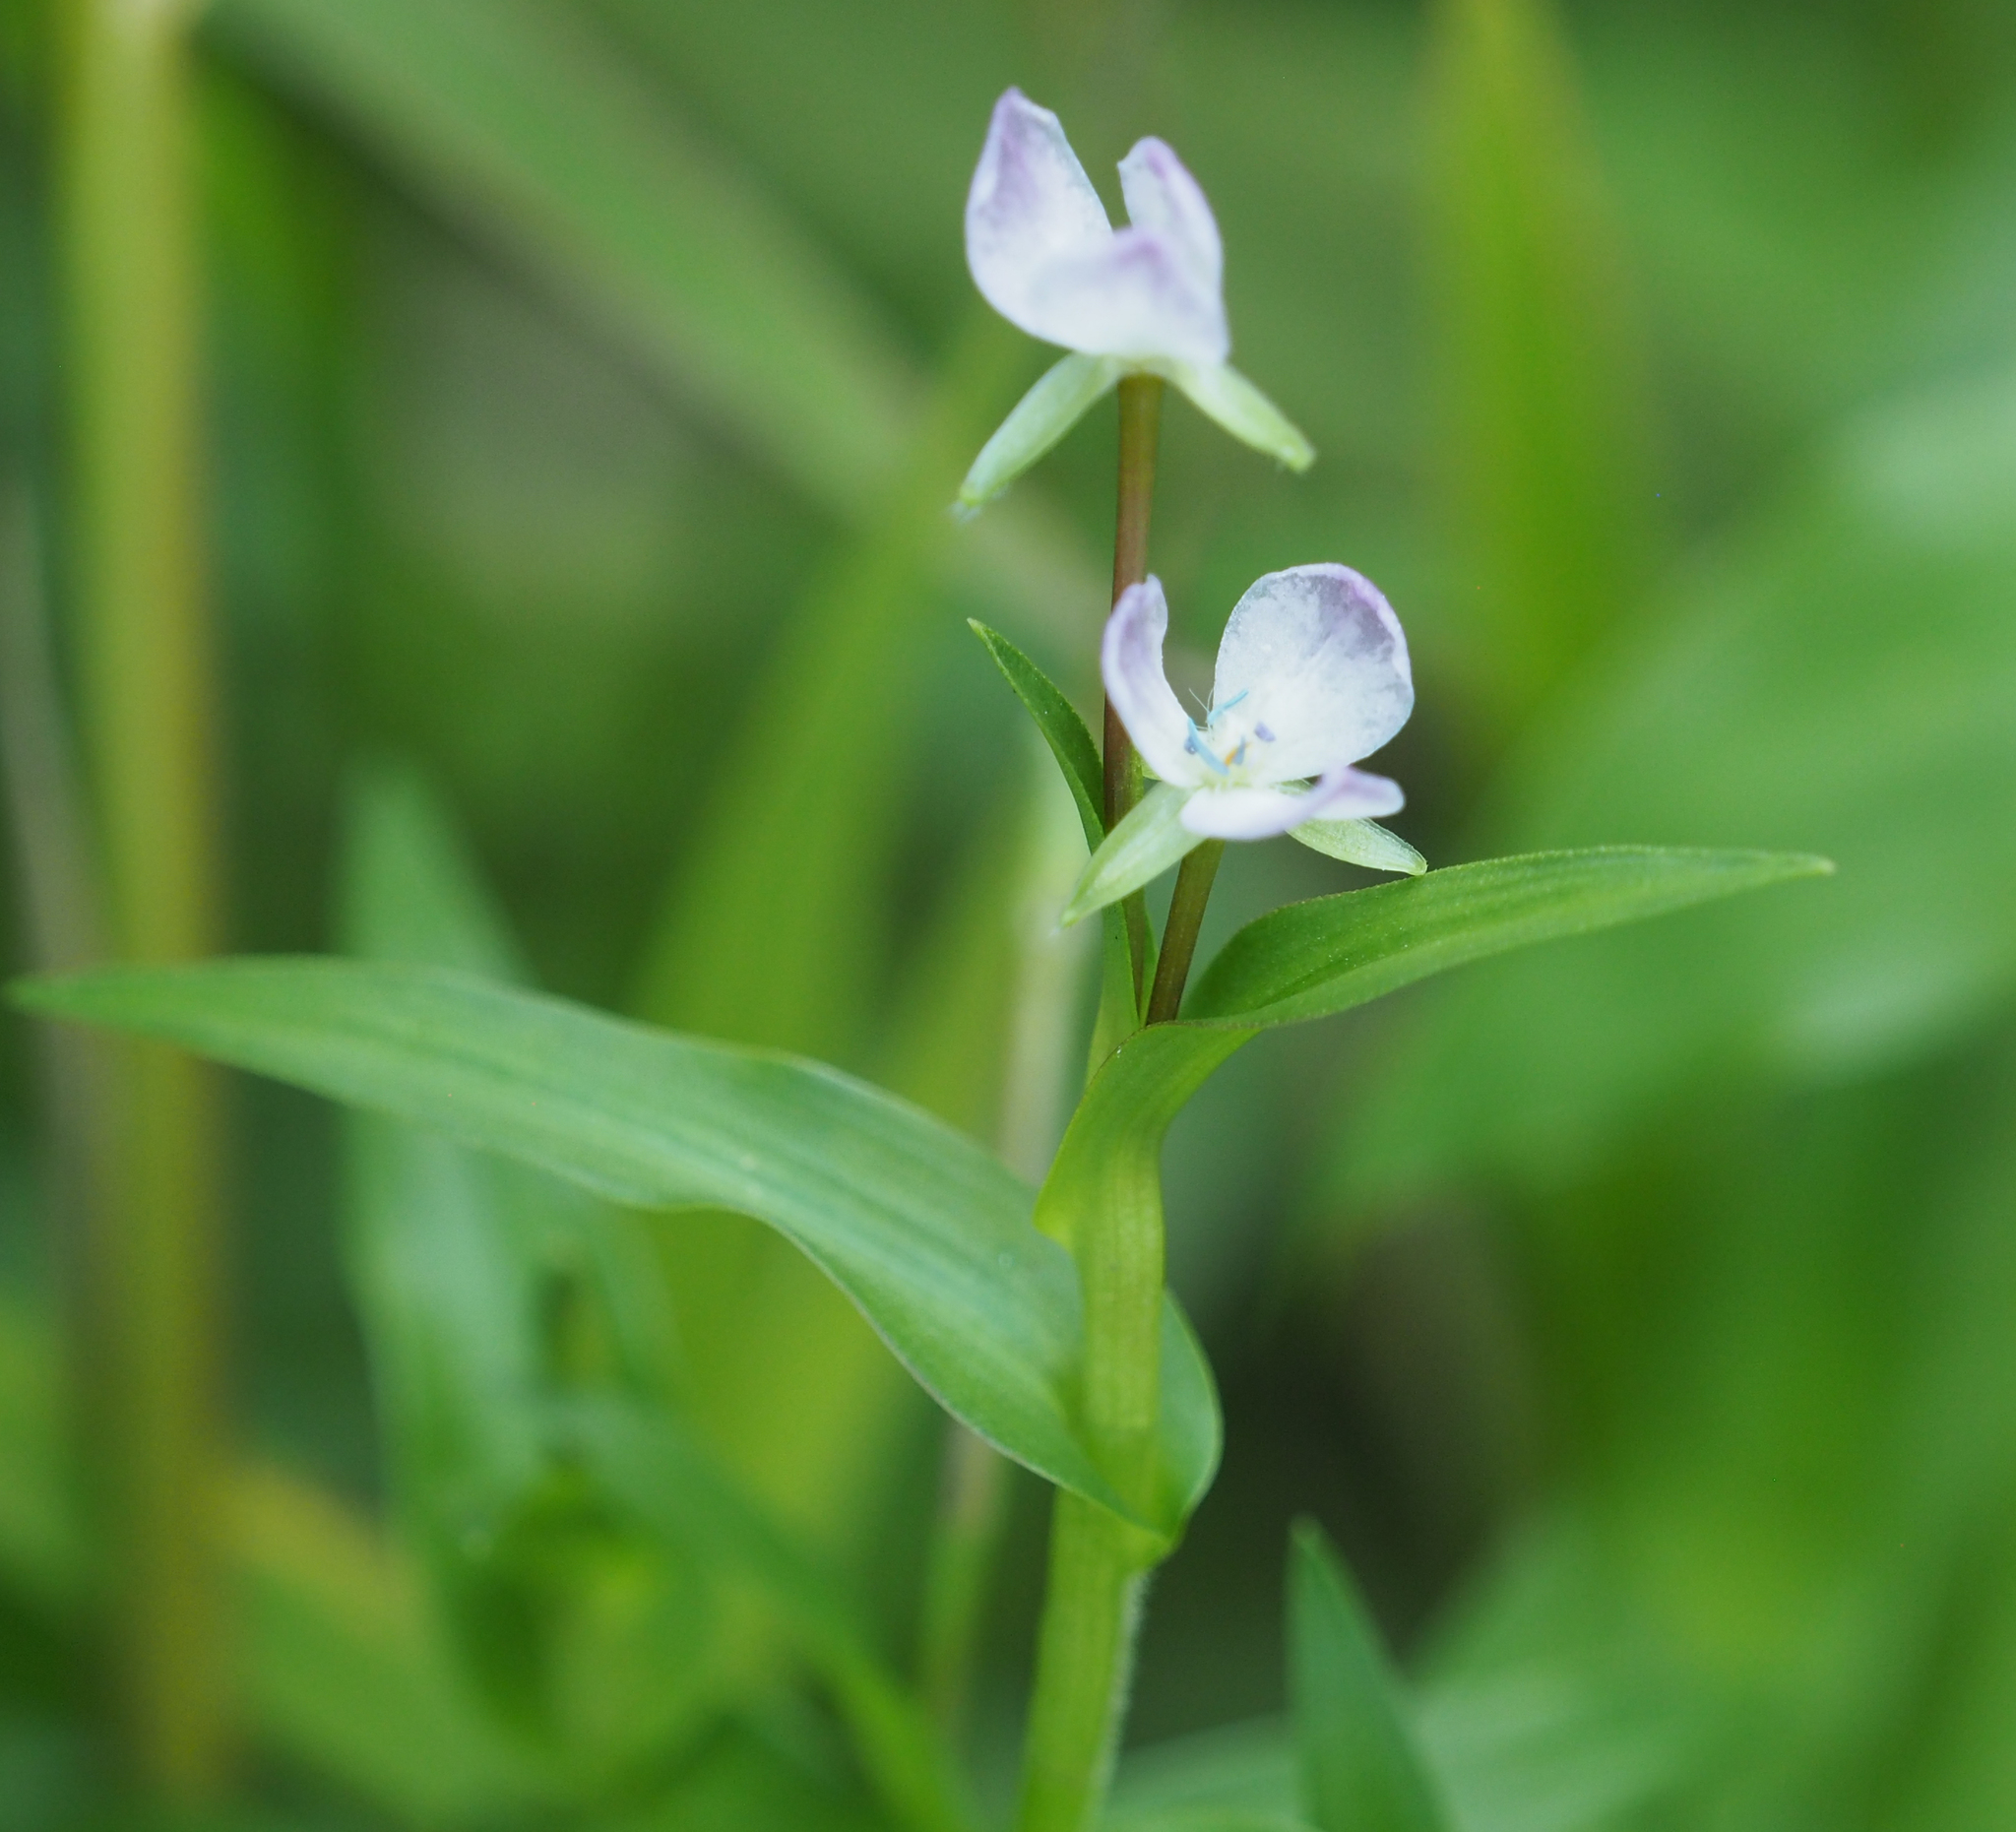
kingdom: Plantae
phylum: Tracheophyta
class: Liliopsida
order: Commelinales
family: Commelinaceae
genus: Murdannia
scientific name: Murdannia keisak
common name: Wartremoving herb
